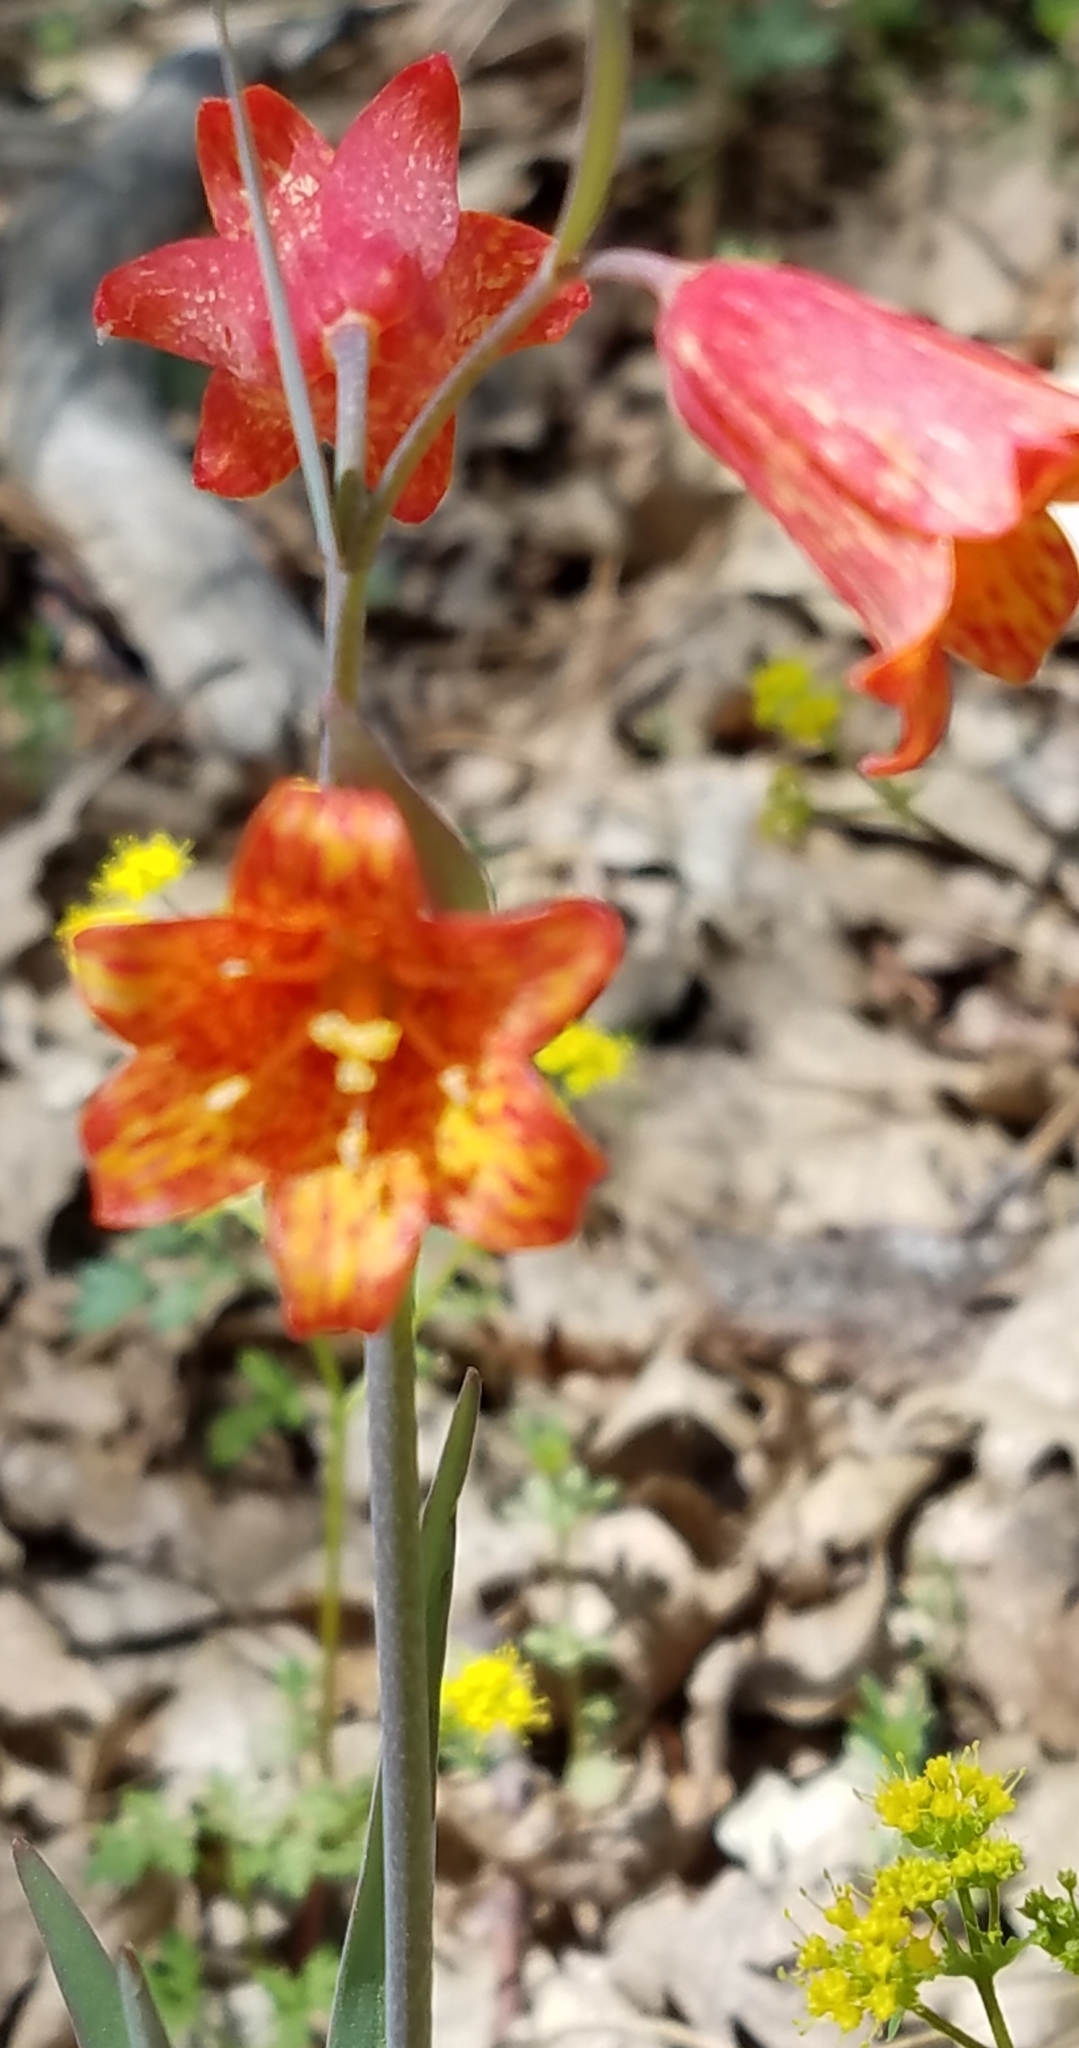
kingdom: Plantae
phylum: Tracheophyta
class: Liliopsida
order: Liliales
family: Liliaceae
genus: Fritillaria
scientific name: Fritillaria recurva
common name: Scarlet fritillary
